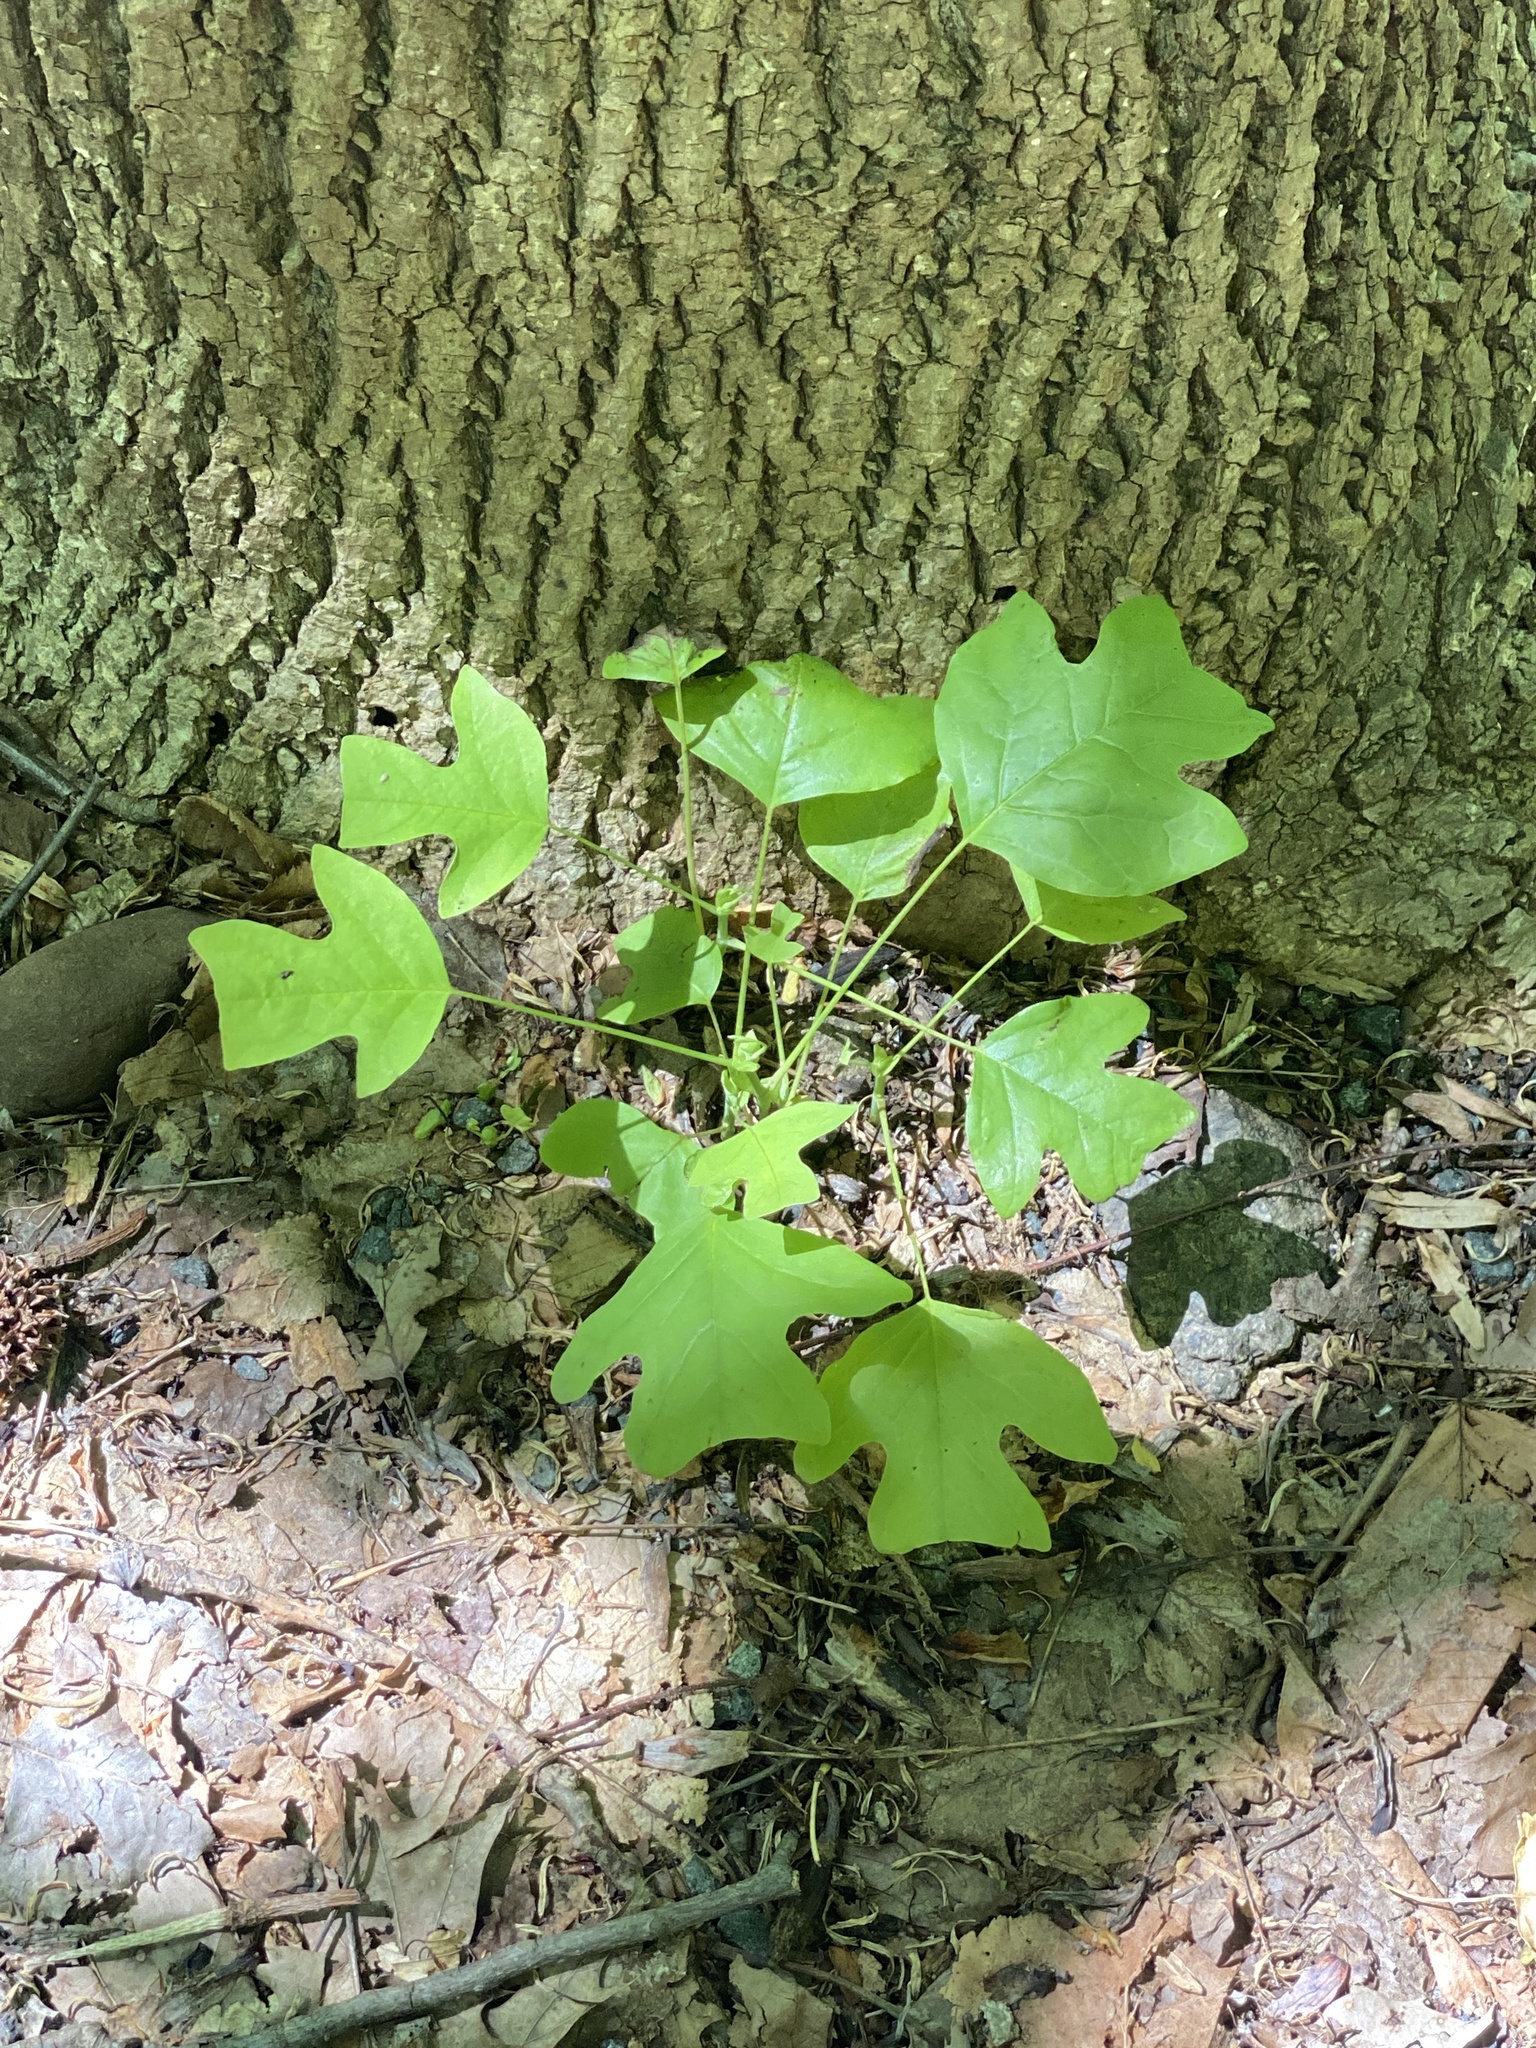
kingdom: Plantae
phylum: Tracheophyta
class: Magnoliopsida
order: Magnoliales
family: Magnoliaceae
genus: Liriodendron
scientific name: Liriodendron tulipifera
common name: Tulip tree
